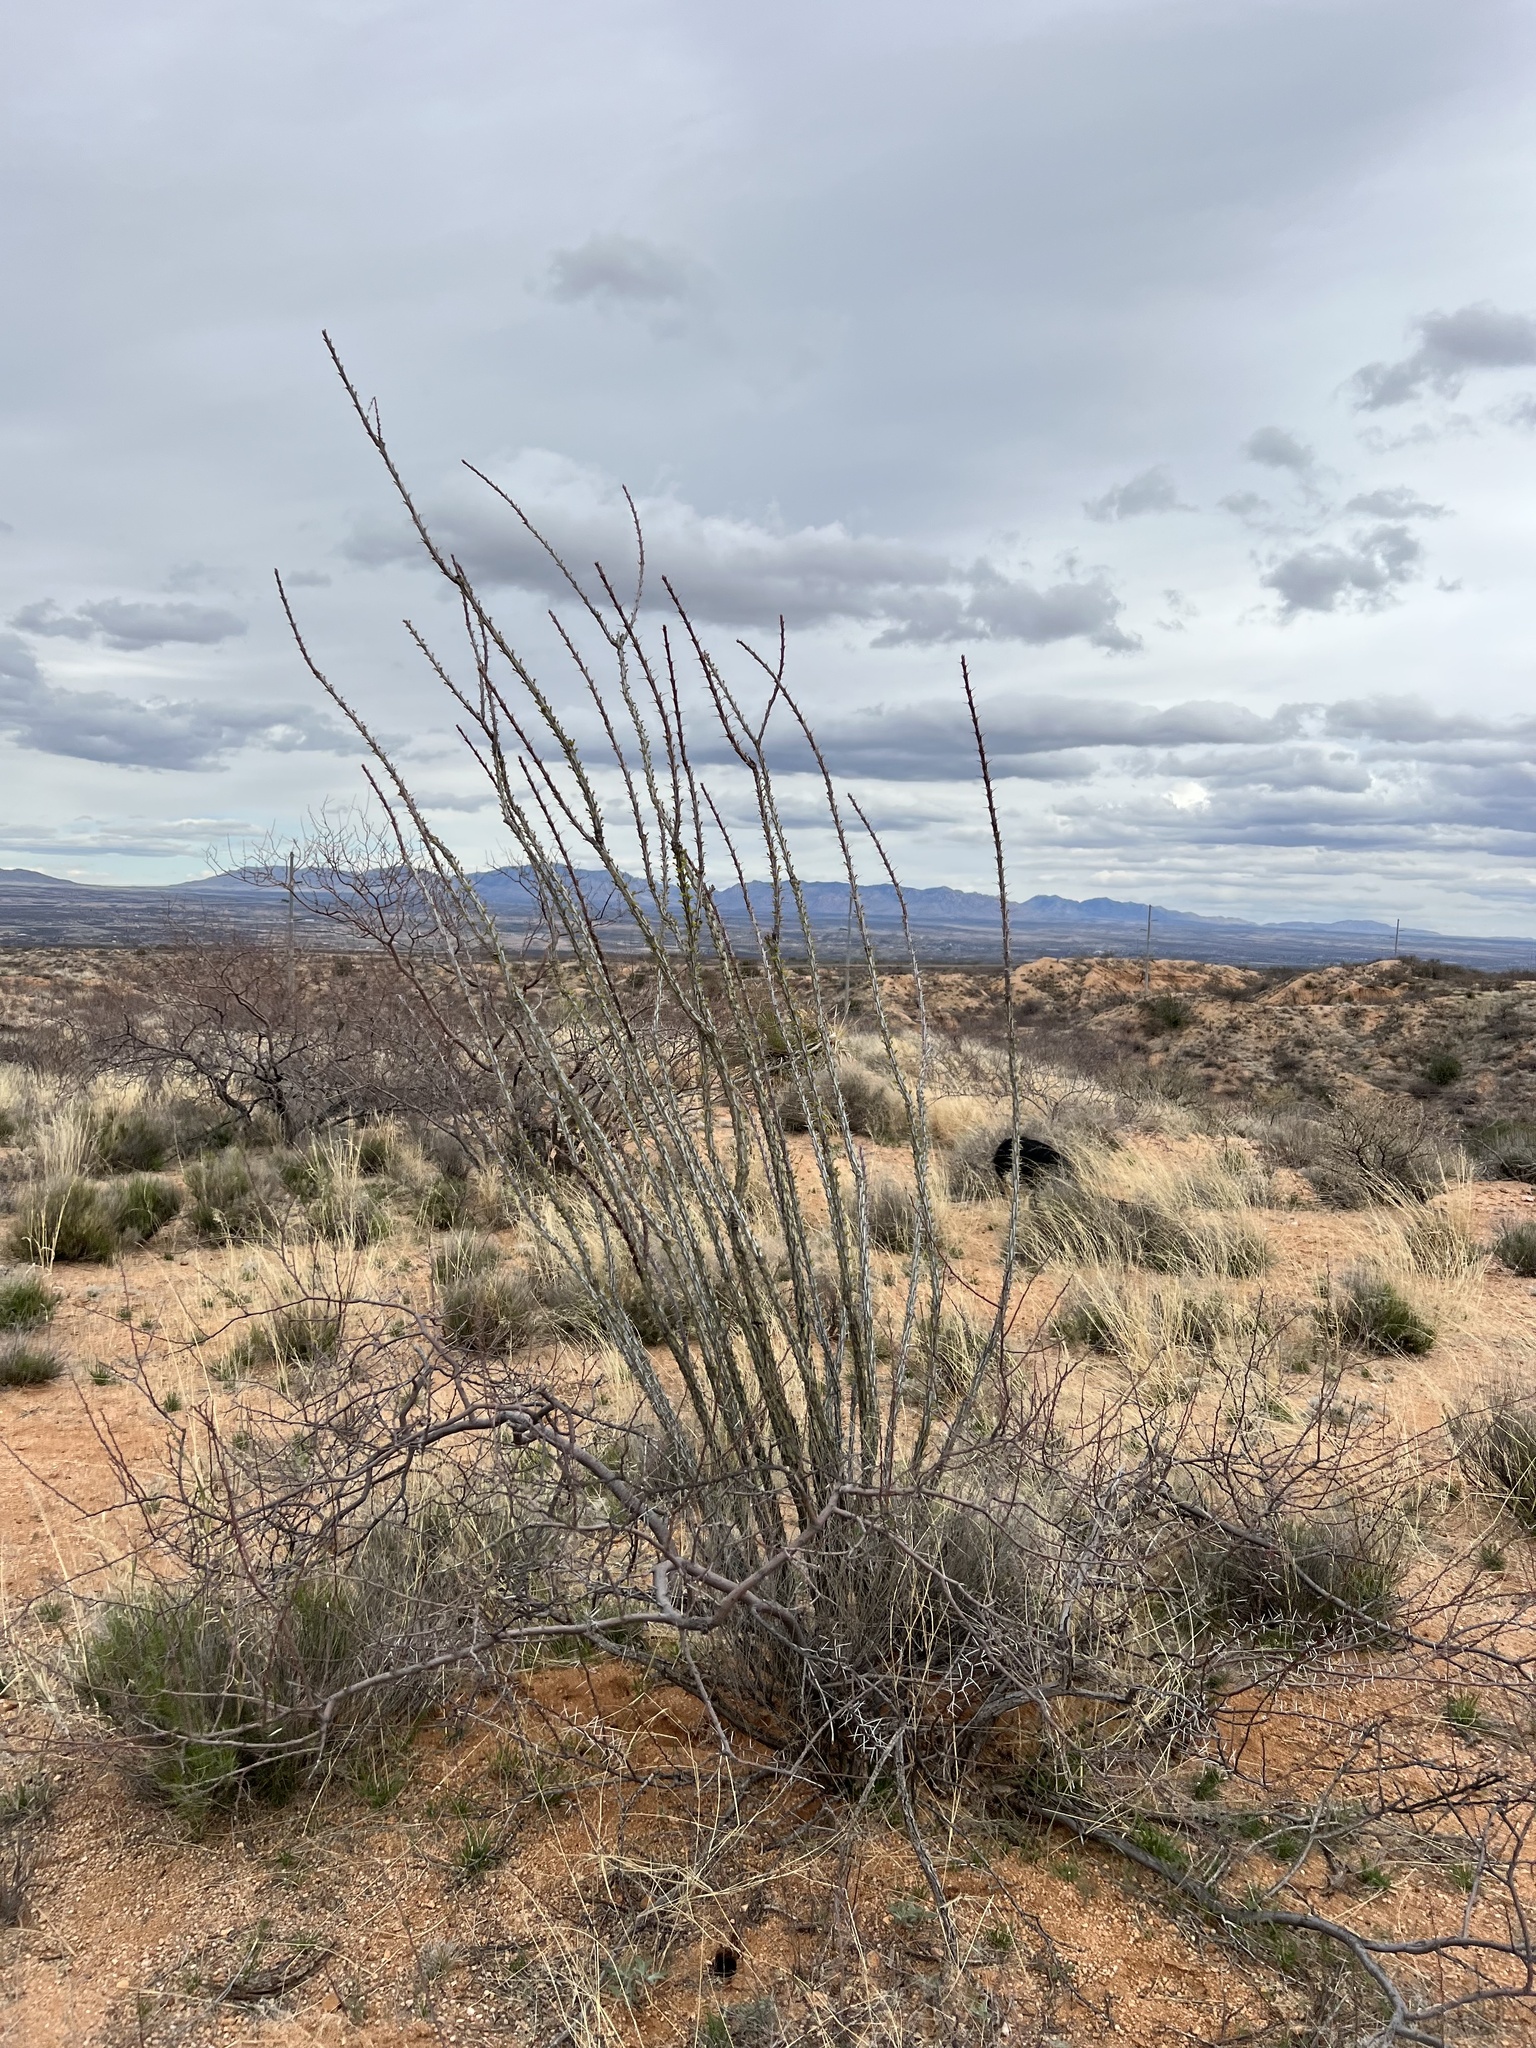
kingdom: Plantae
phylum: Tracheophyta
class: Magnoliopsida
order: Ericales
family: Fouquieriaceae
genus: Fouquieria
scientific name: Fouquieria splendens
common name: Vine-cactus
